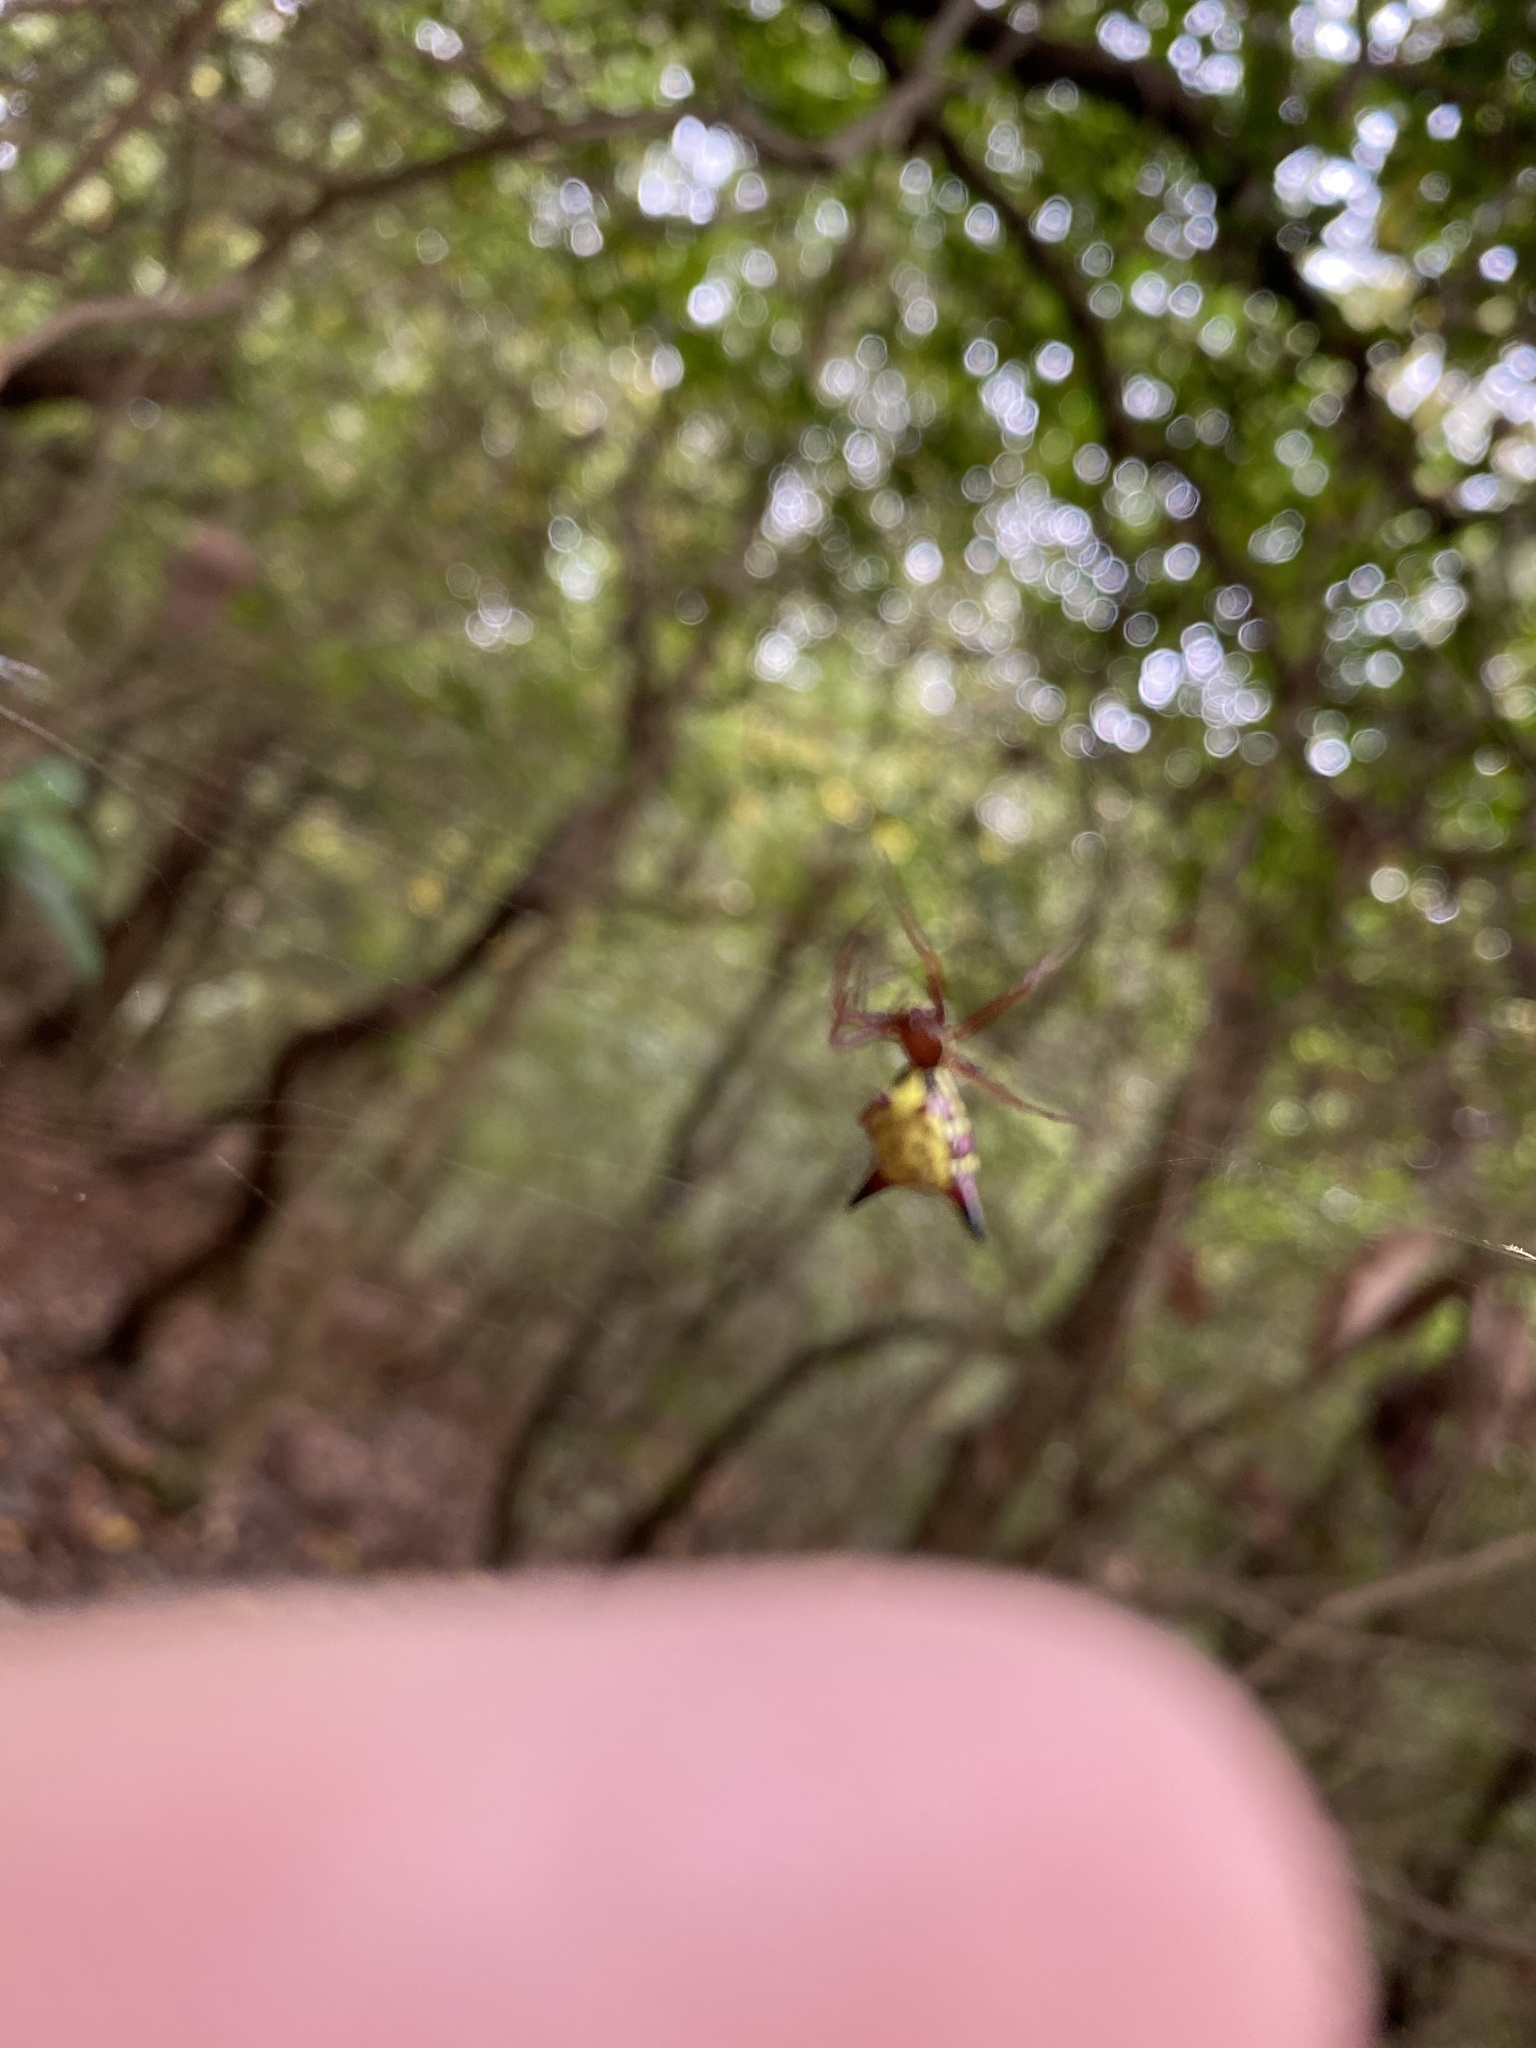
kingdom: Animalia
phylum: Arthropoda
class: Arachnida
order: Araneae
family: Araneidae
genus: Micrathena
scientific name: Micrathena sagittata
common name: Orb weavers
